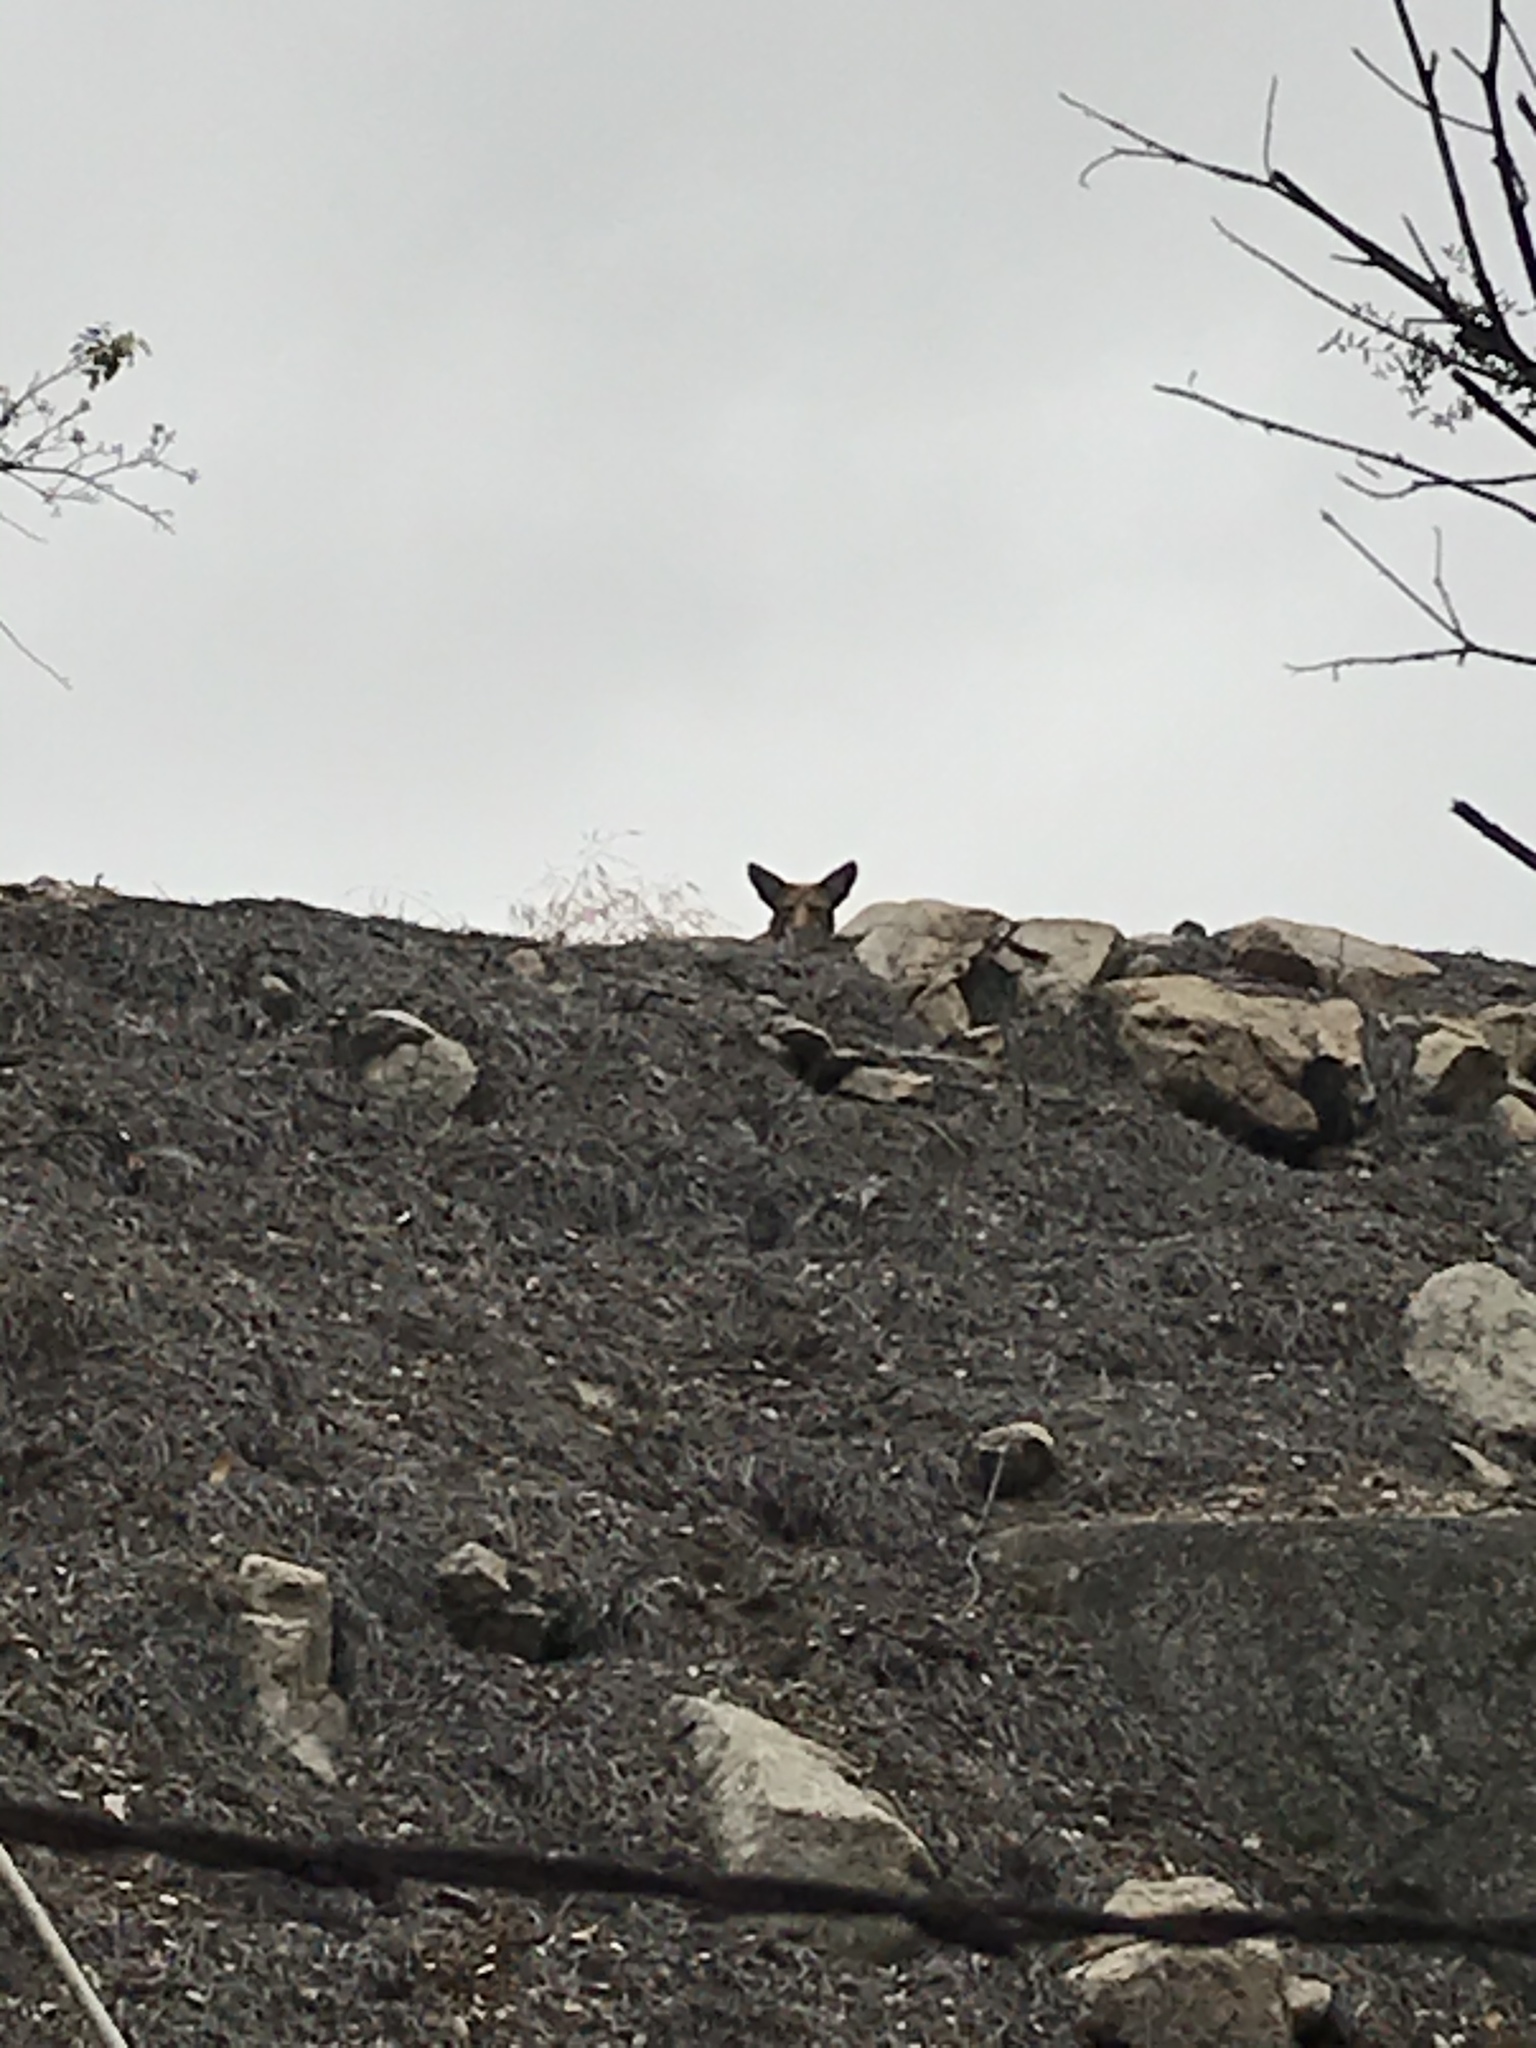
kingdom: Animalia
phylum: Chordata
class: Mammalia
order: Carnivora
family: Canidae
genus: Canis
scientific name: Canis latrans
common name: Coyote
